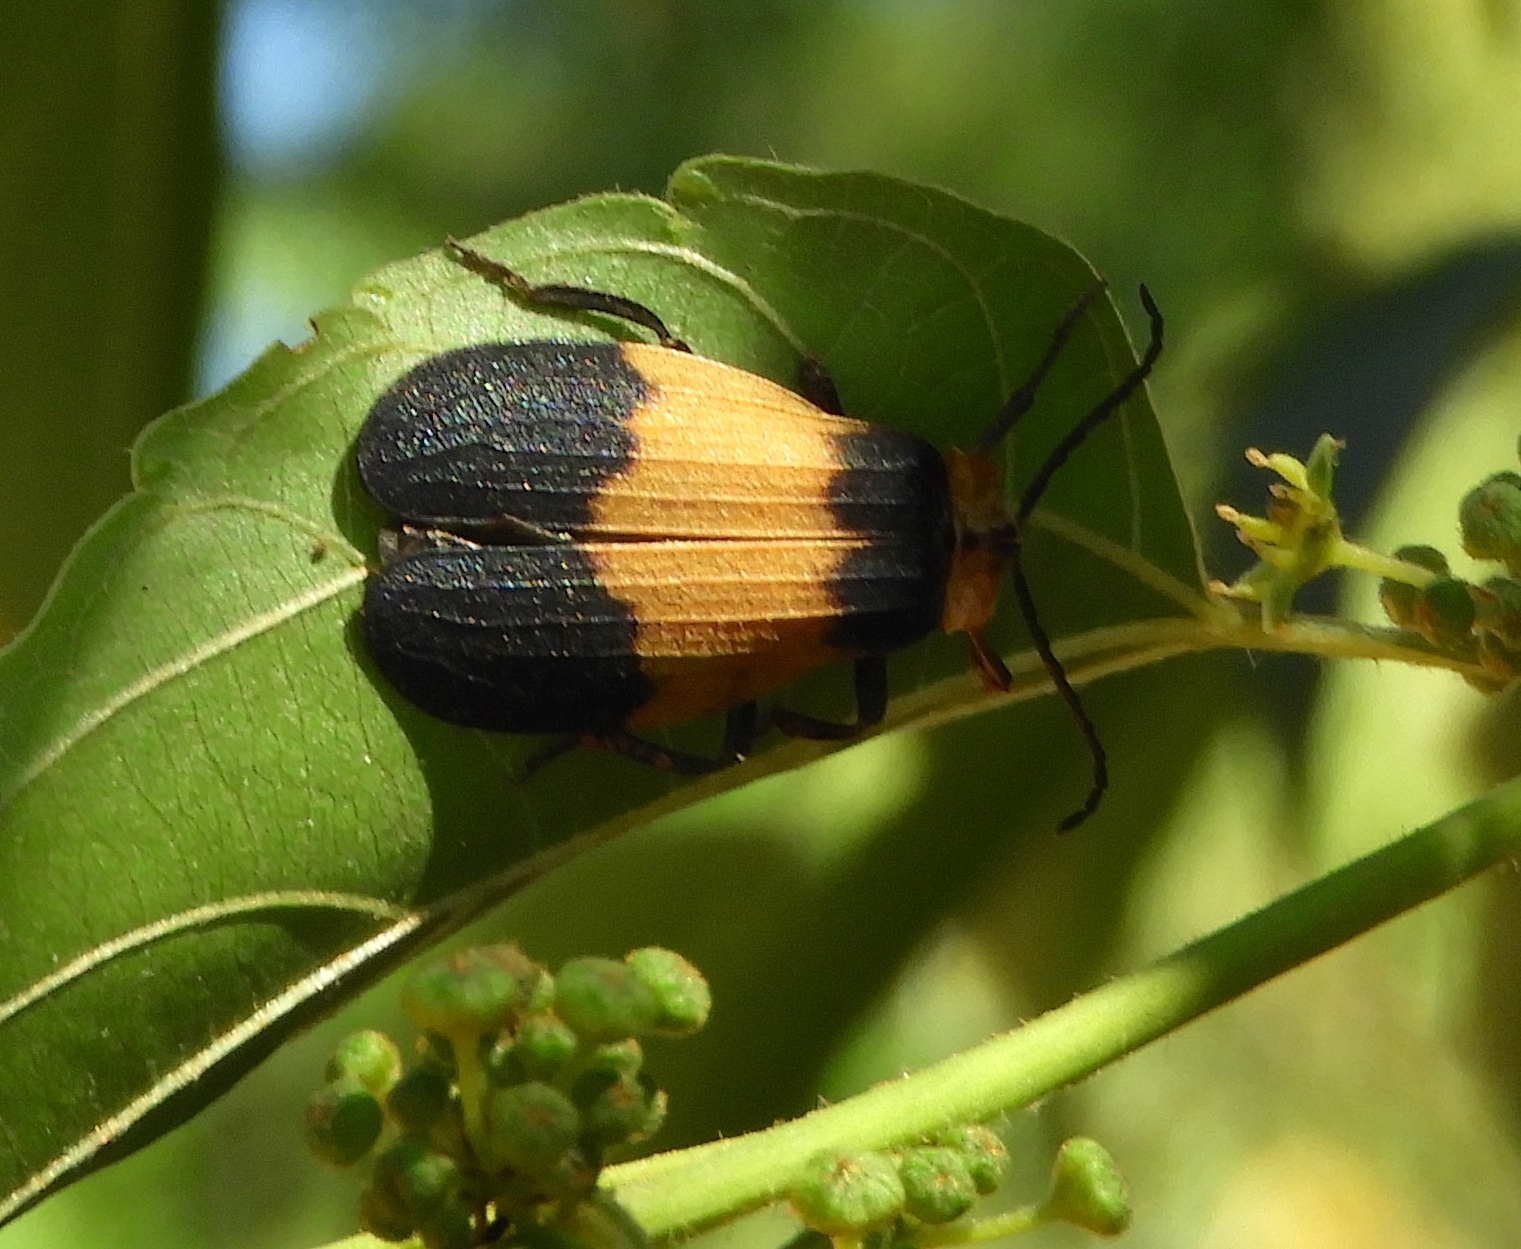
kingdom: Animalia
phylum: Arthropoda
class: Insecta
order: Coleoptera
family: Lycidae
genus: Lycus
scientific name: Lycus
